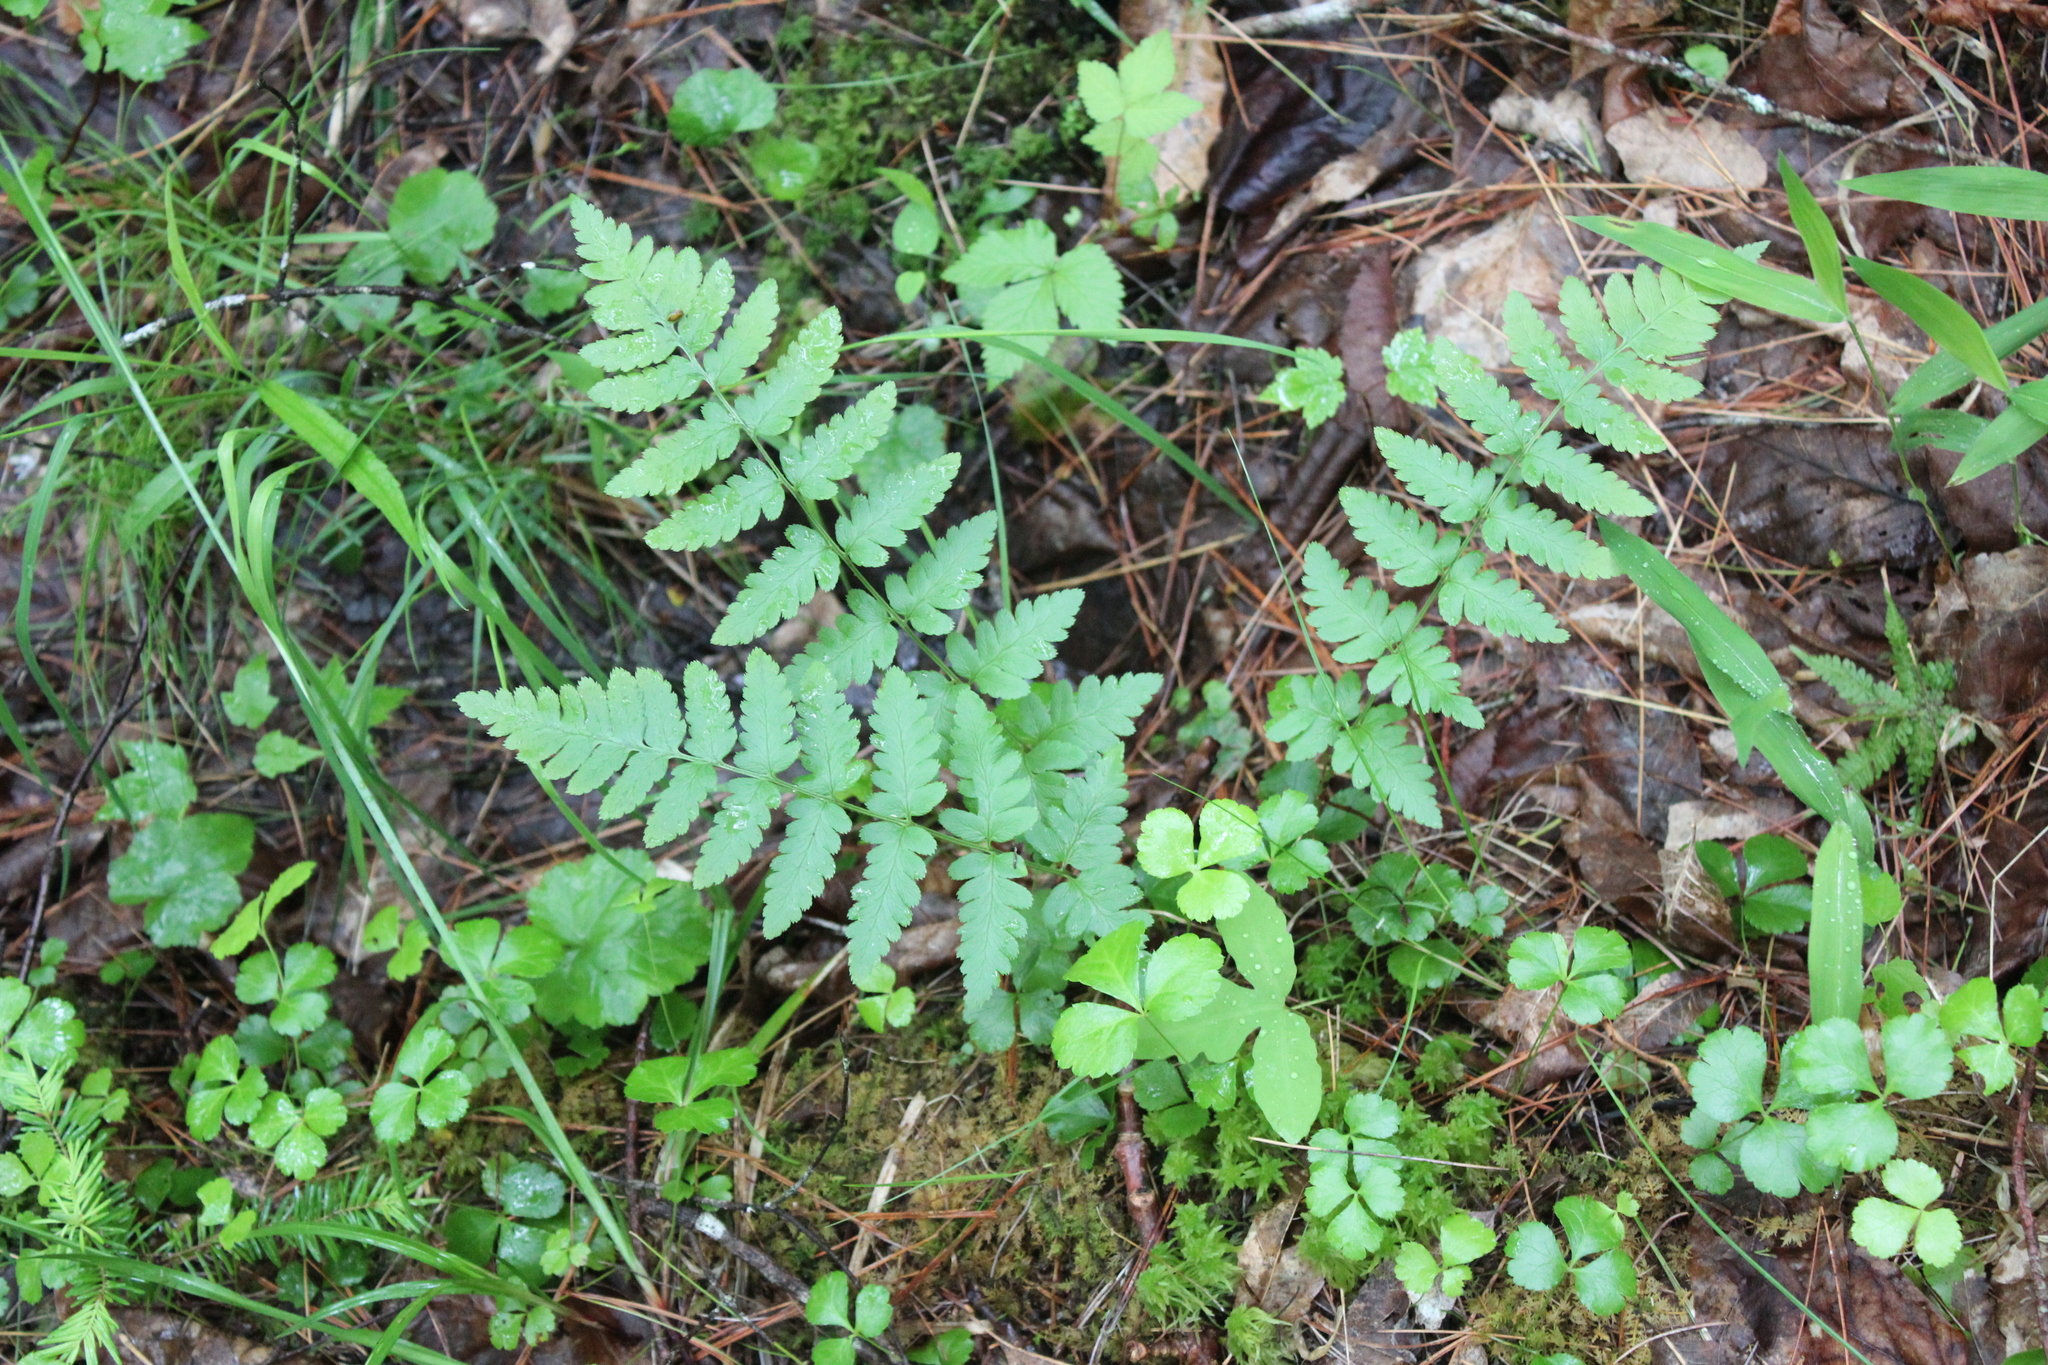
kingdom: Plantae
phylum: Tracheophyta
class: Polypodiopsida
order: Polypodiales
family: Dryopteridaceae
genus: Dryopteris
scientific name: Dryopteris cristata
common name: Crested wood fern
